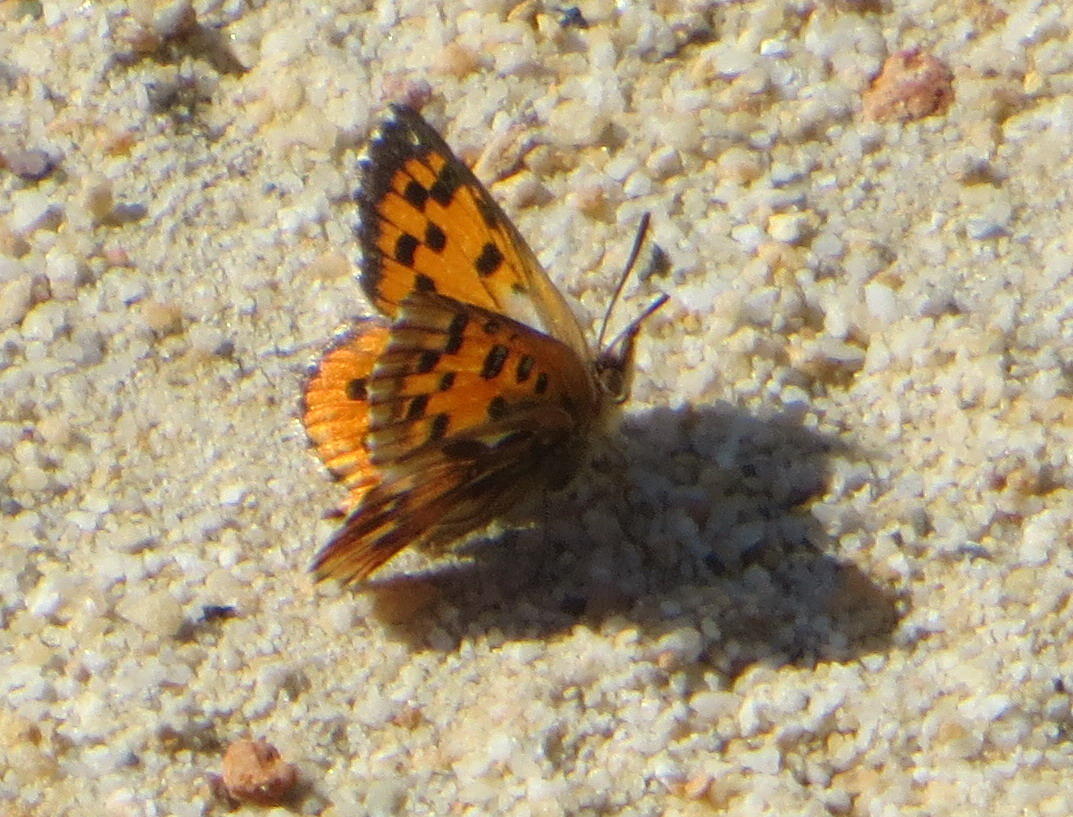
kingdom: Animalia
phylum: Arthropoda
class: Insecta
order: Lepidoptera
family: Lycaenidae
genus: Chrysoritis
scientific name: Chrysoritis
